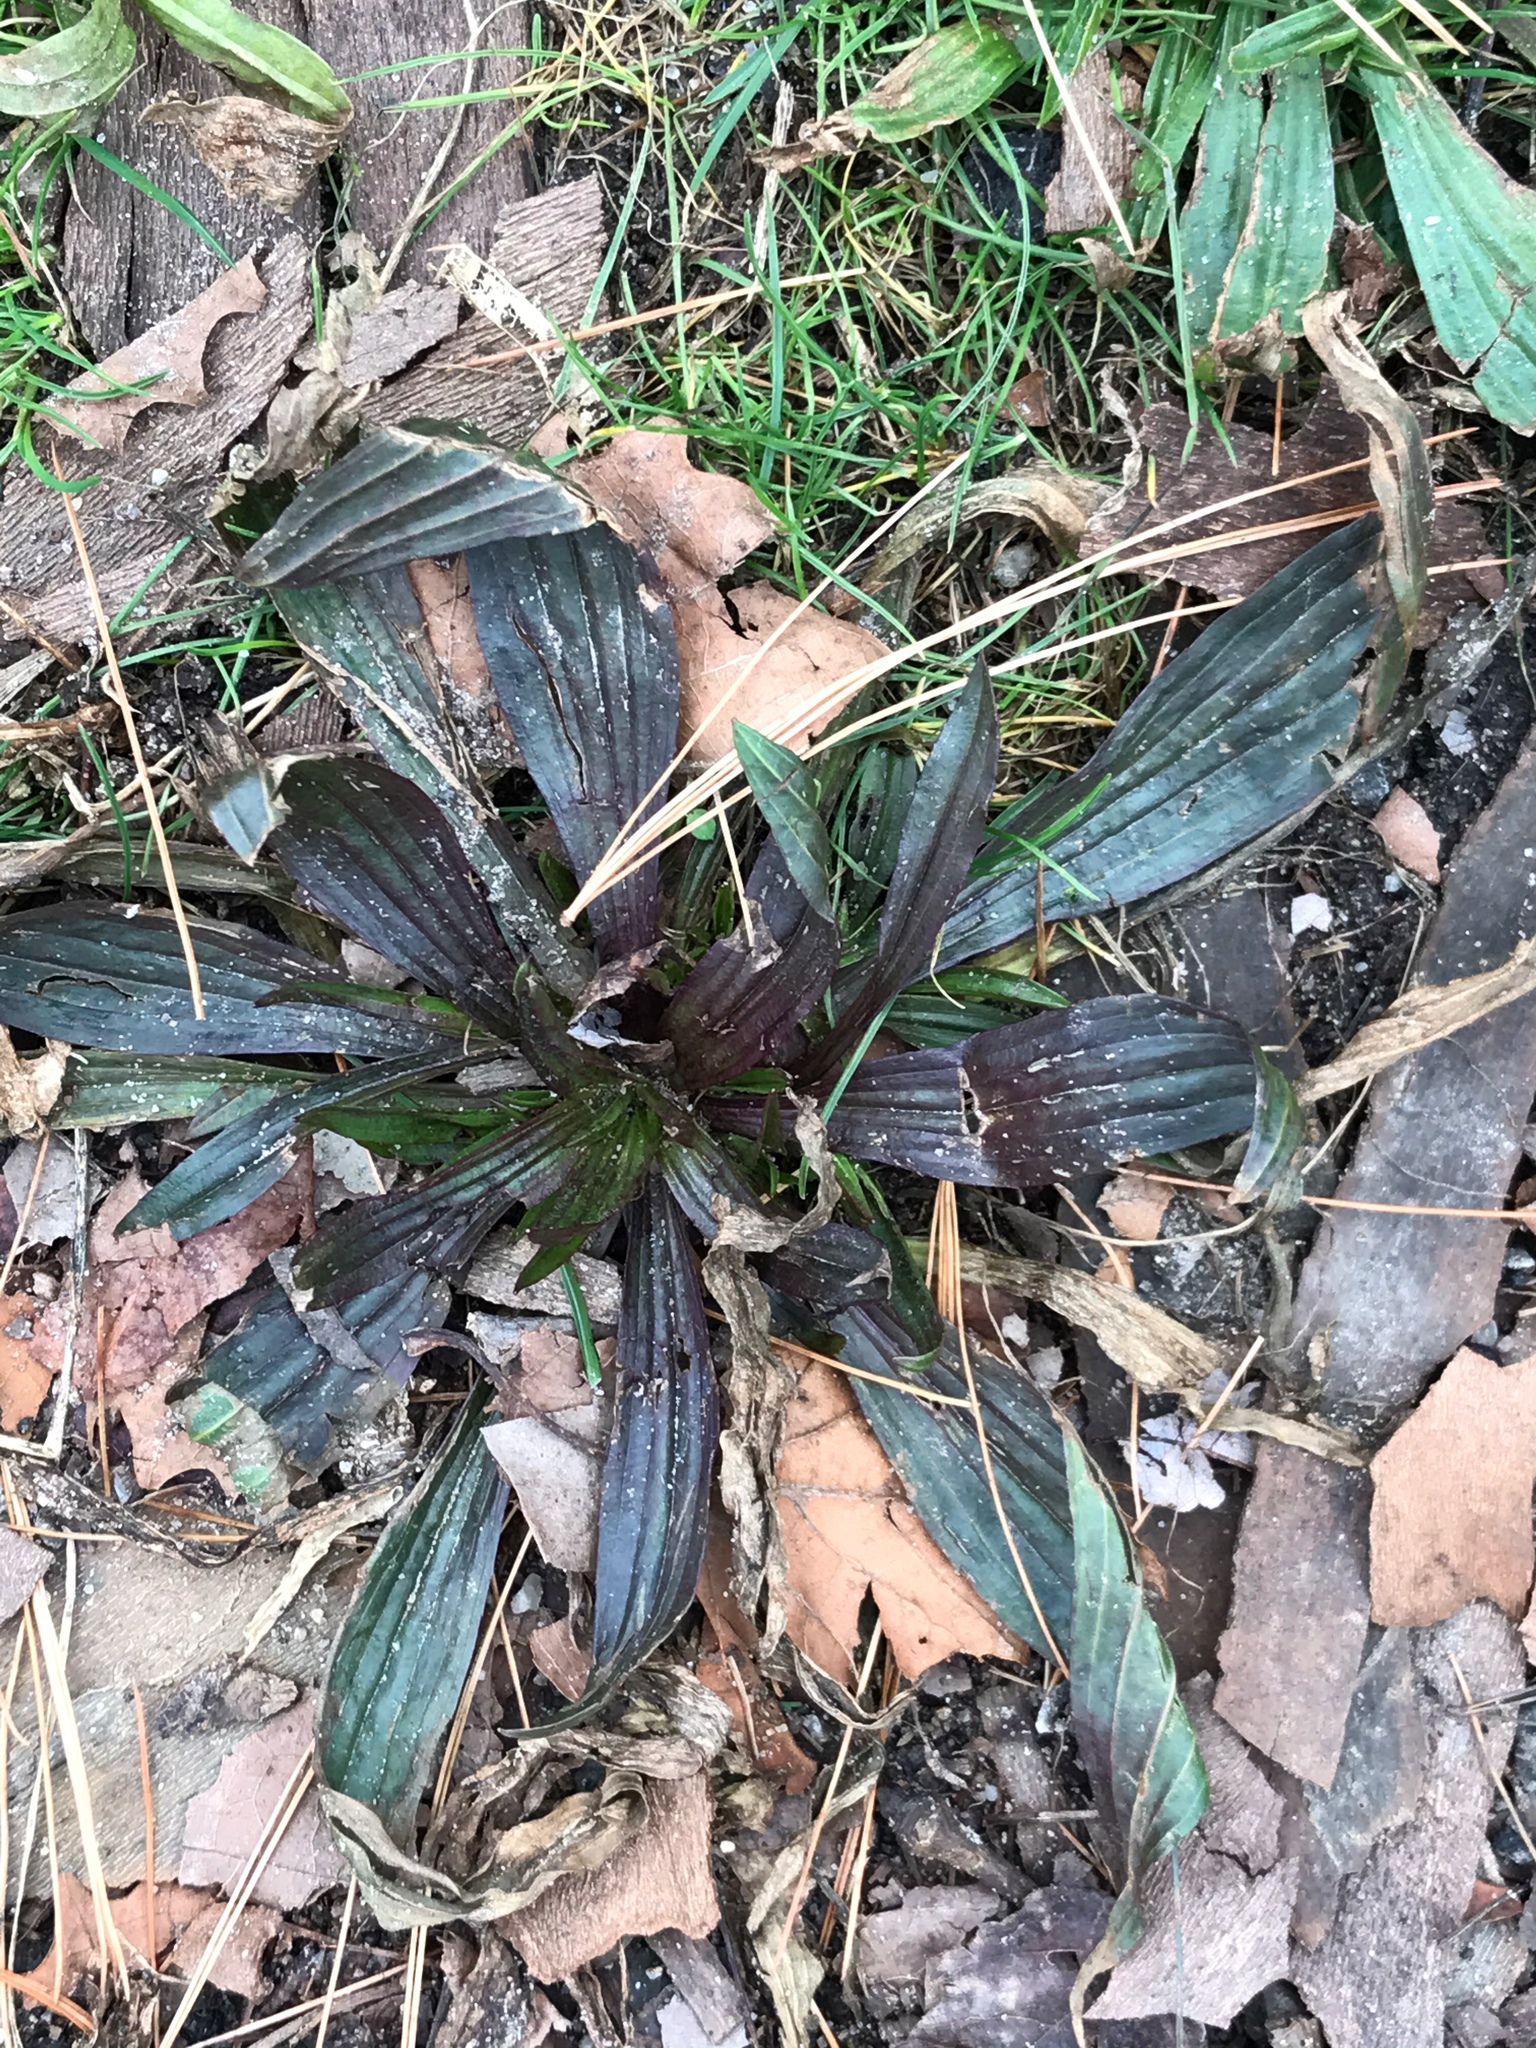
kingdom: Plantae
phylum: Tracheophyta
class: Magnoliopsida
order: Lamiales
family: Plantaginaceae
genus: Plantago
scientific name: Plantago lanceolata
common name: Ribwort plantain
